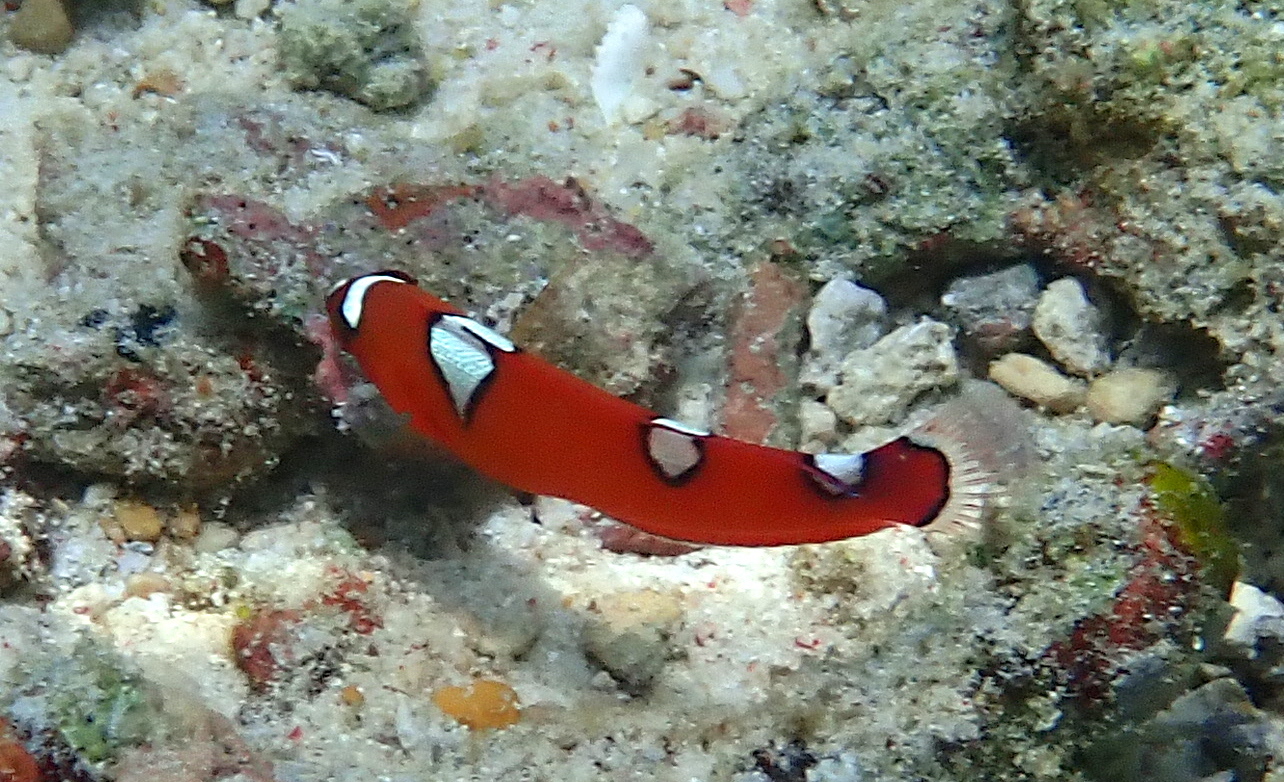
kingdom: Animalia
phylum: Chordata
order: Perciformes
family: Labridae
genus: Coris
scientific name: Coris gaimard
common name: Yellowtail coris
